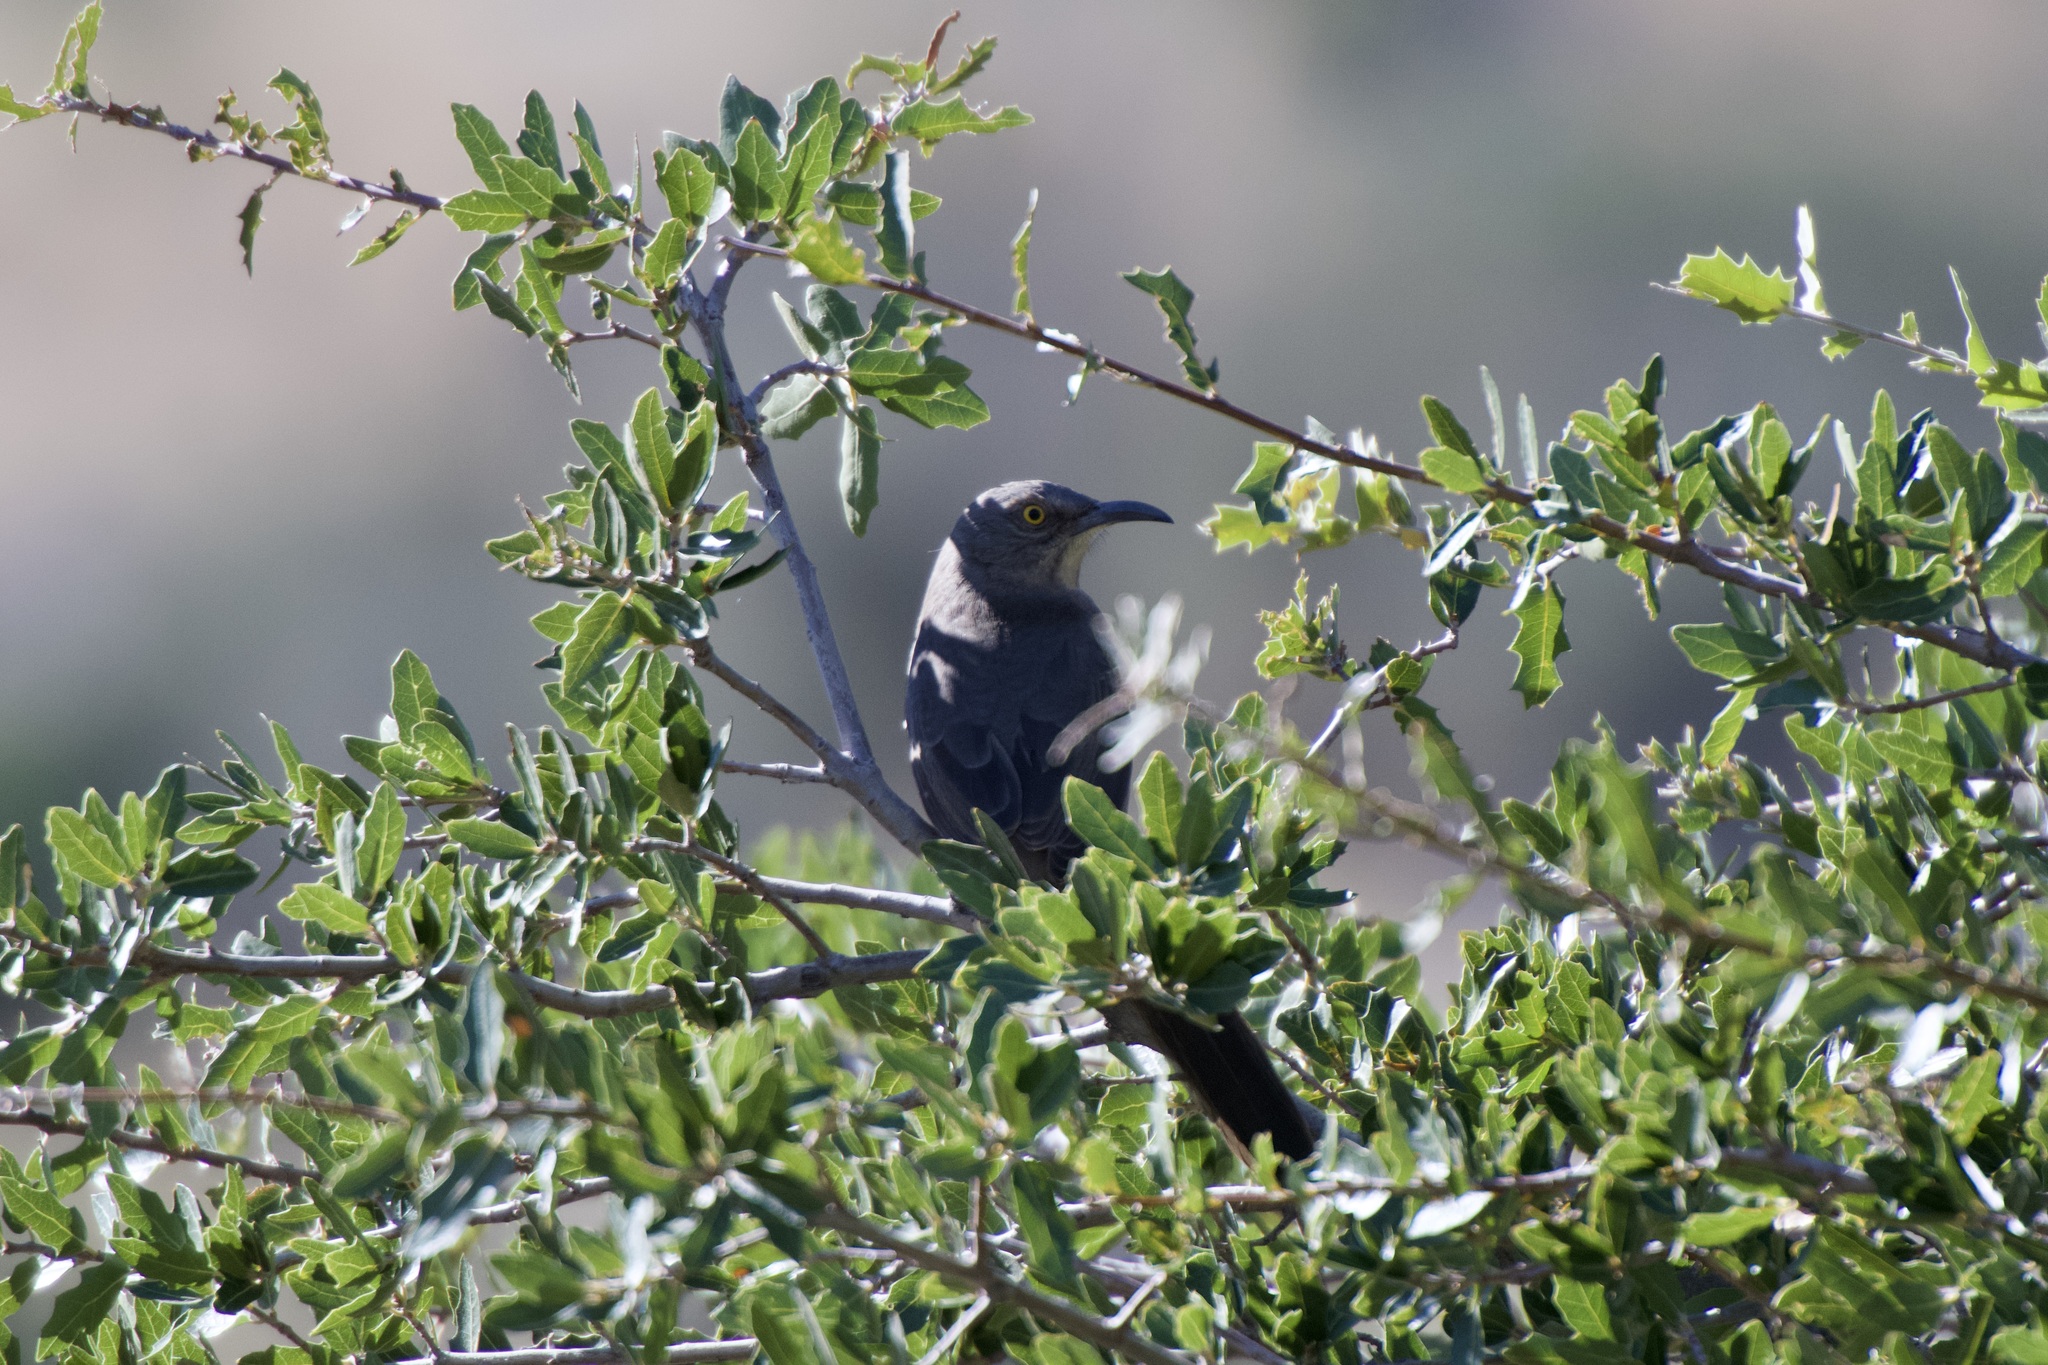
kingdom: Animalia
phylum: Chordata
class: Aves
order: Passeriformes
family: Mimidae
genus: Toxostoma
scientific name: Toxostoma curvirostre
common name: Curve-billed thrasher
